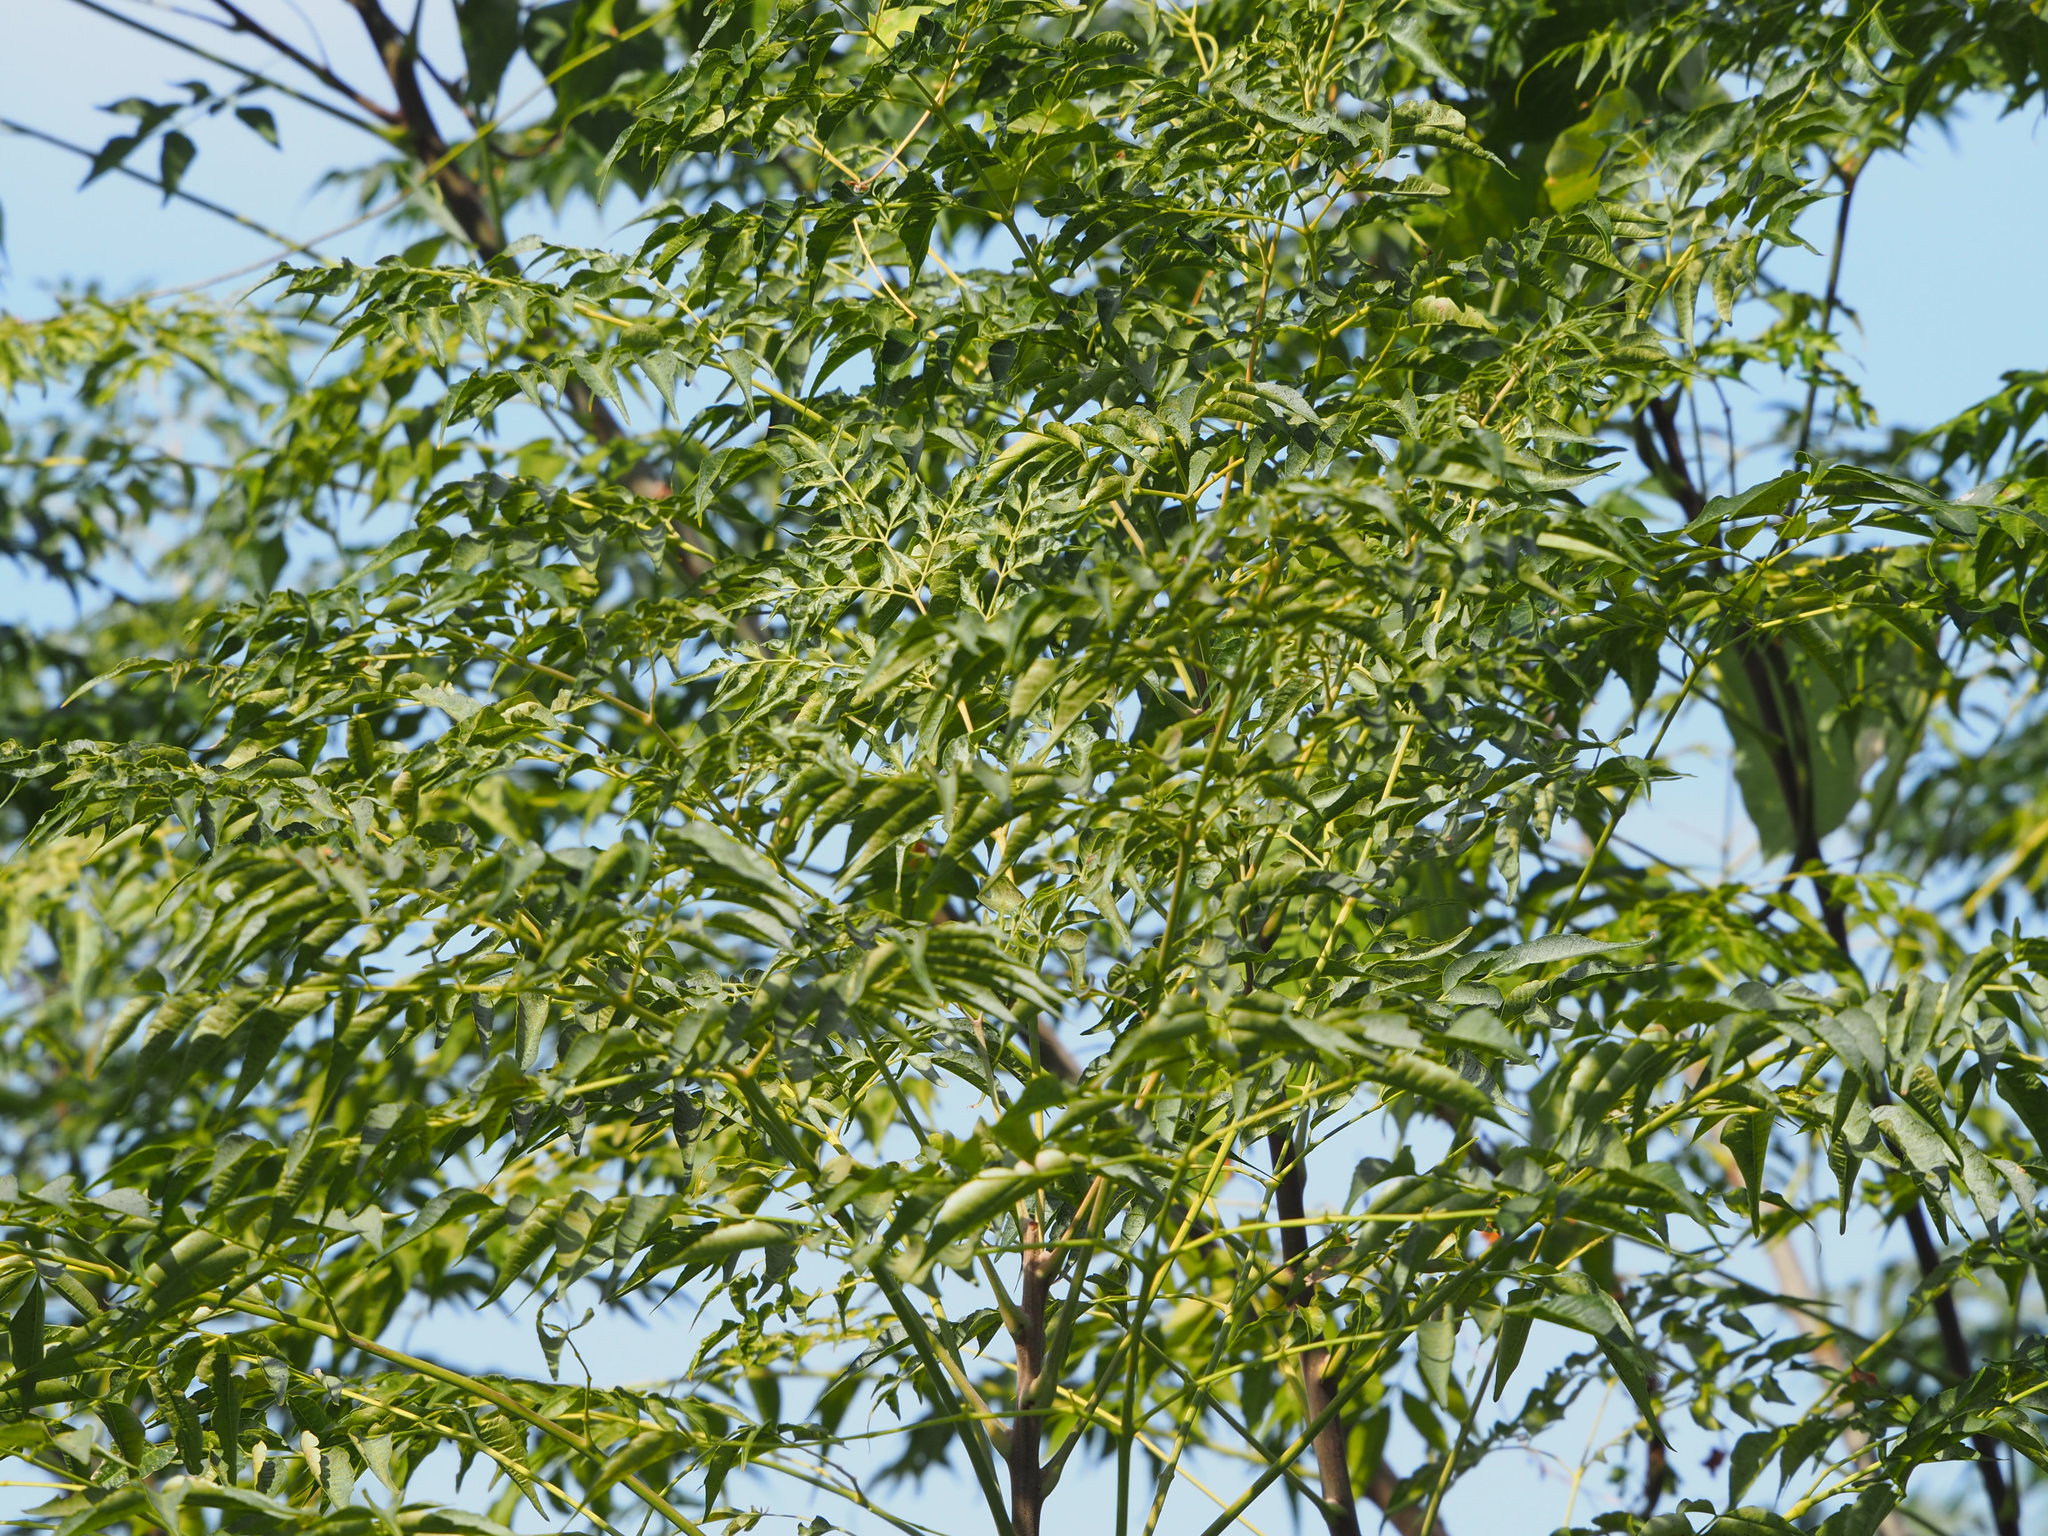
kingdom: Plantae
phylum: Tracheophyta
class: Magnoliopsida
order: Sapindales
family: Meliaceae
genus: Melia
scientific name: Melia azedarach
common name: Chinaberrytree
